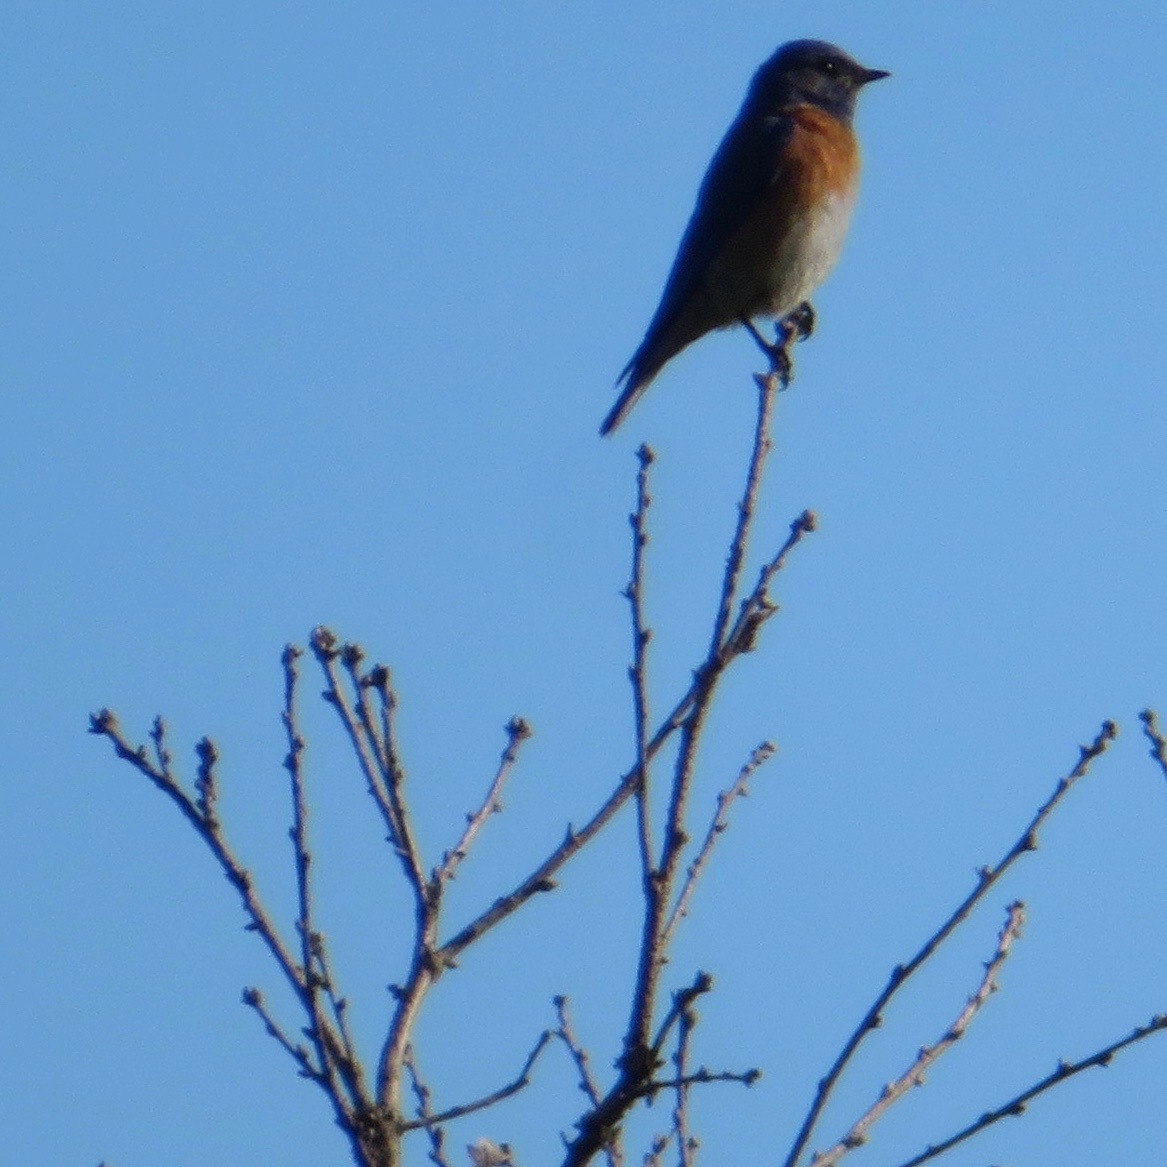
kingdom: Animalia
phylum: Chordata
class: Aves
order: Passeriformes
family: Turdidae
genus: Sialia
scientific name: Sialia mexicana
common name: Western bluebird
